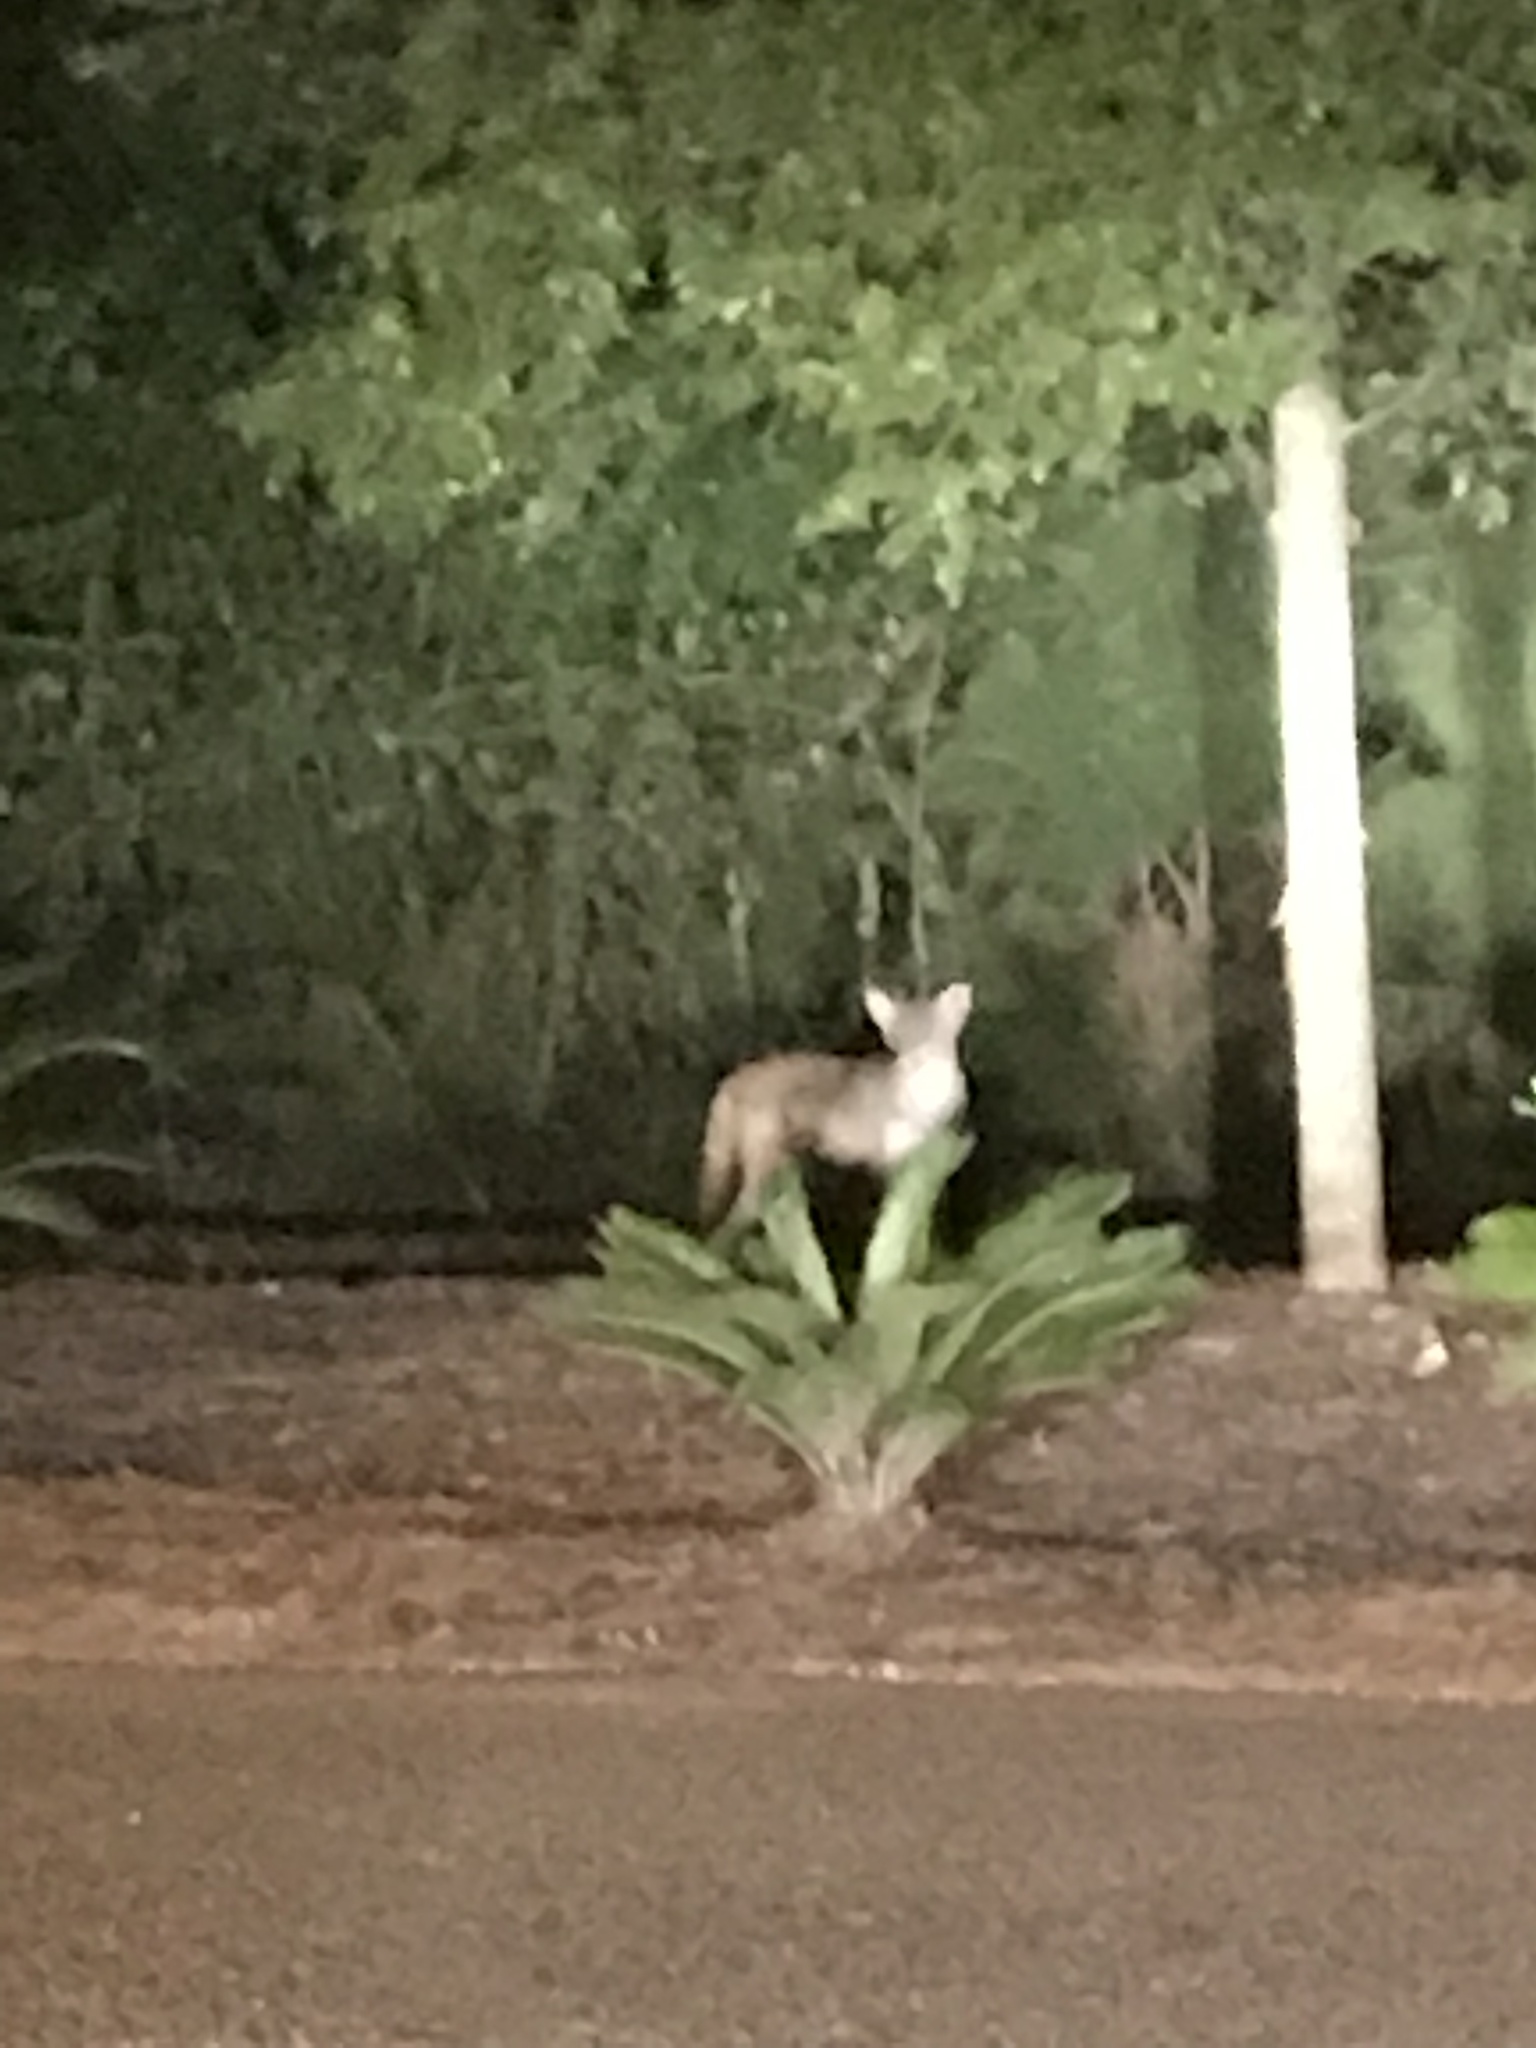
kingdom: Animalia
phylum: Chordata
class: Mammalia
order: Carnivora
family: Canidae
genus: Canis
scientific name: Canis latrans
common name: Coyote
